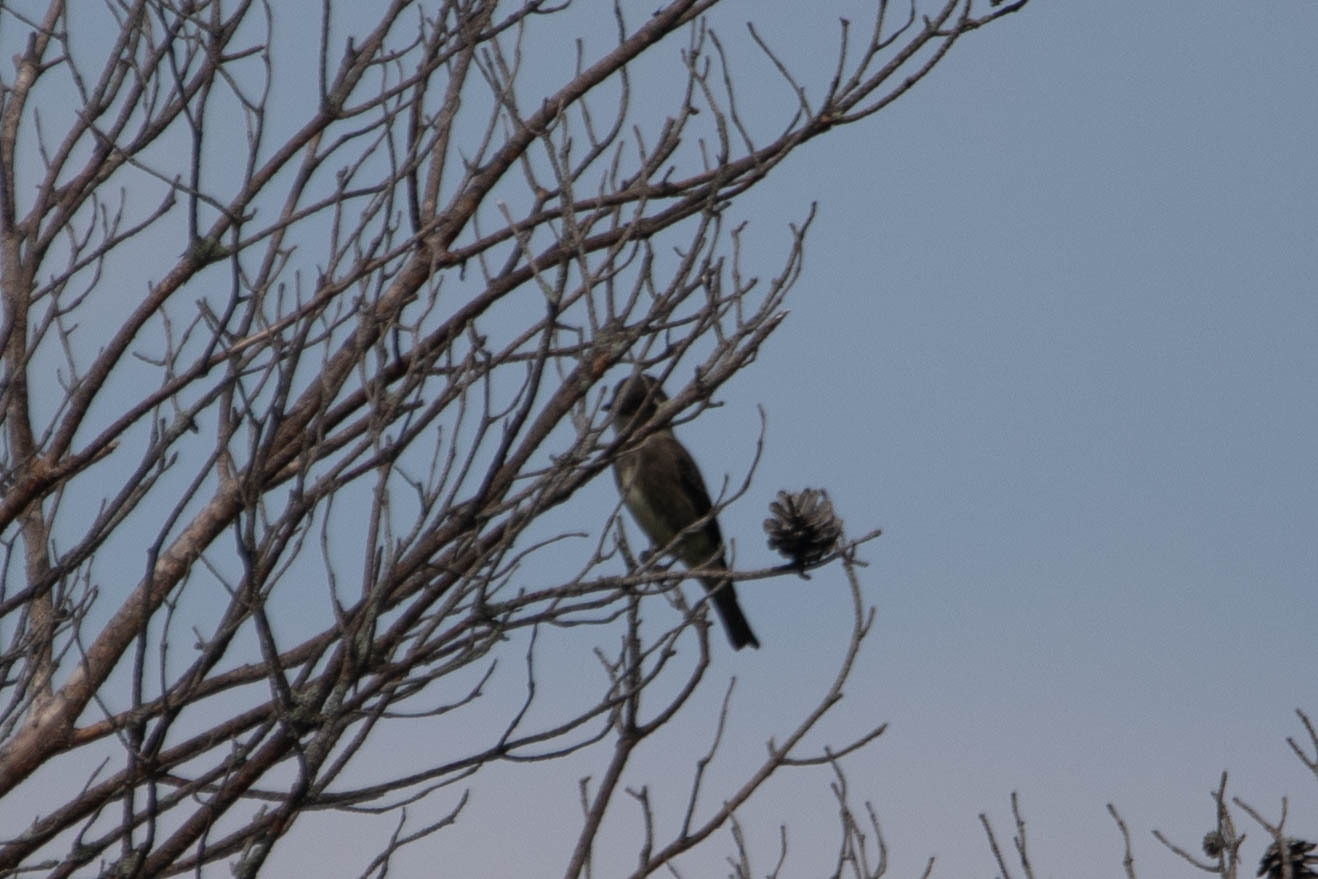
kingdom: Animalia
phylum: Chordata
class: Aves
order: Passeriformes
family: Tyrannidae
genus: Contopus
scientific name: Contopus cooperi
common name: Olive-sided flycatcher
